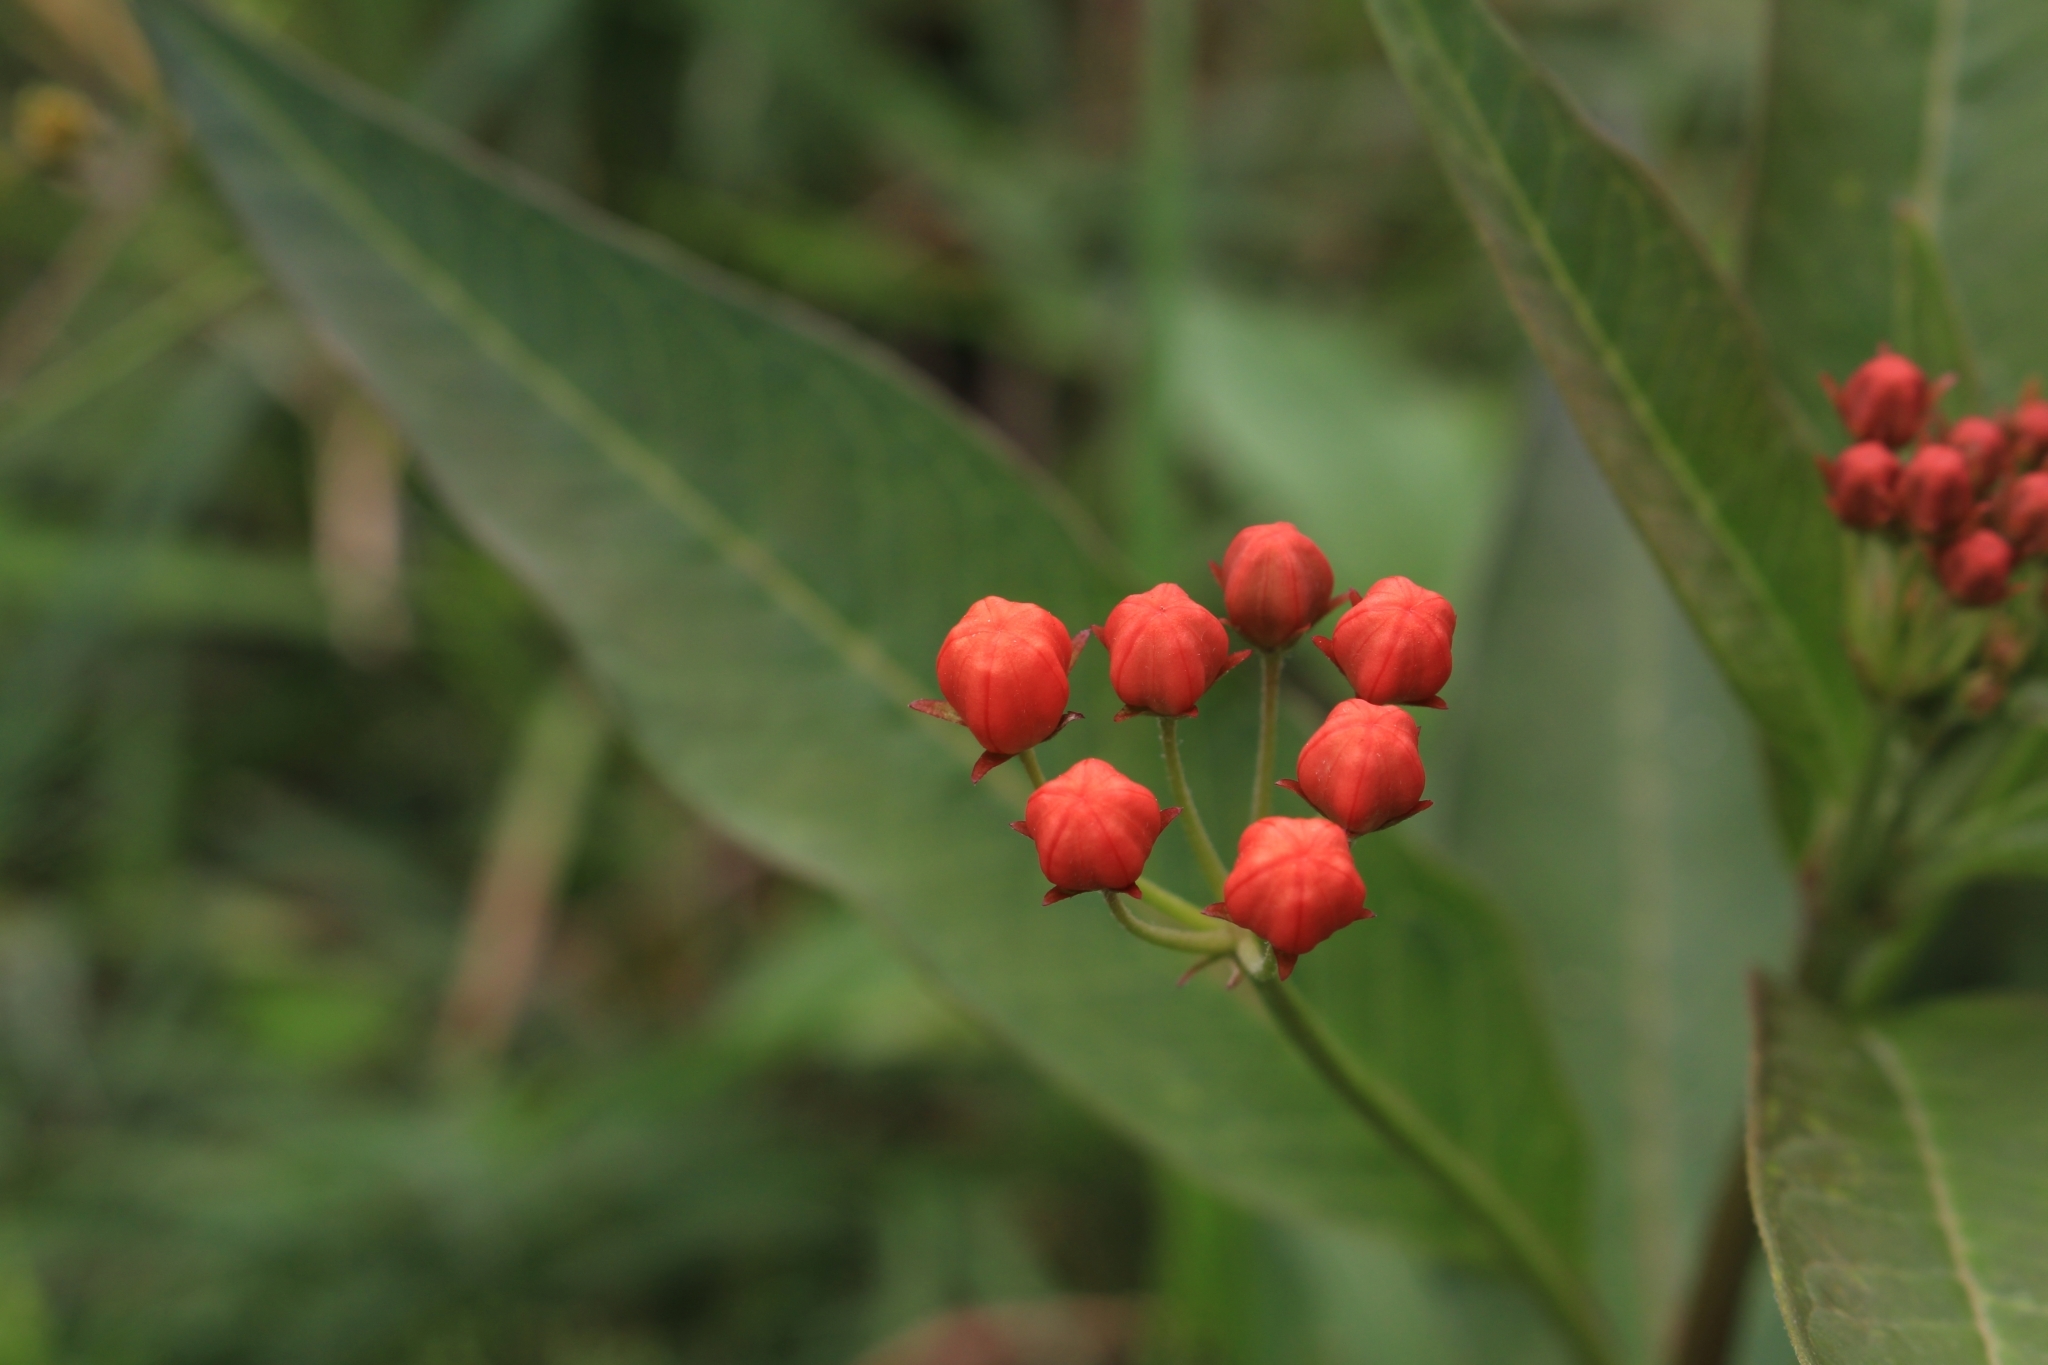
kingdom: Plantae
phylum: Tracheophyta
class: Magnoliopsida
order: Gentianales
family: Apocynaceae
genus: Asclepias
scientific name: Asclepias curassavica
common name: Bloodflower
